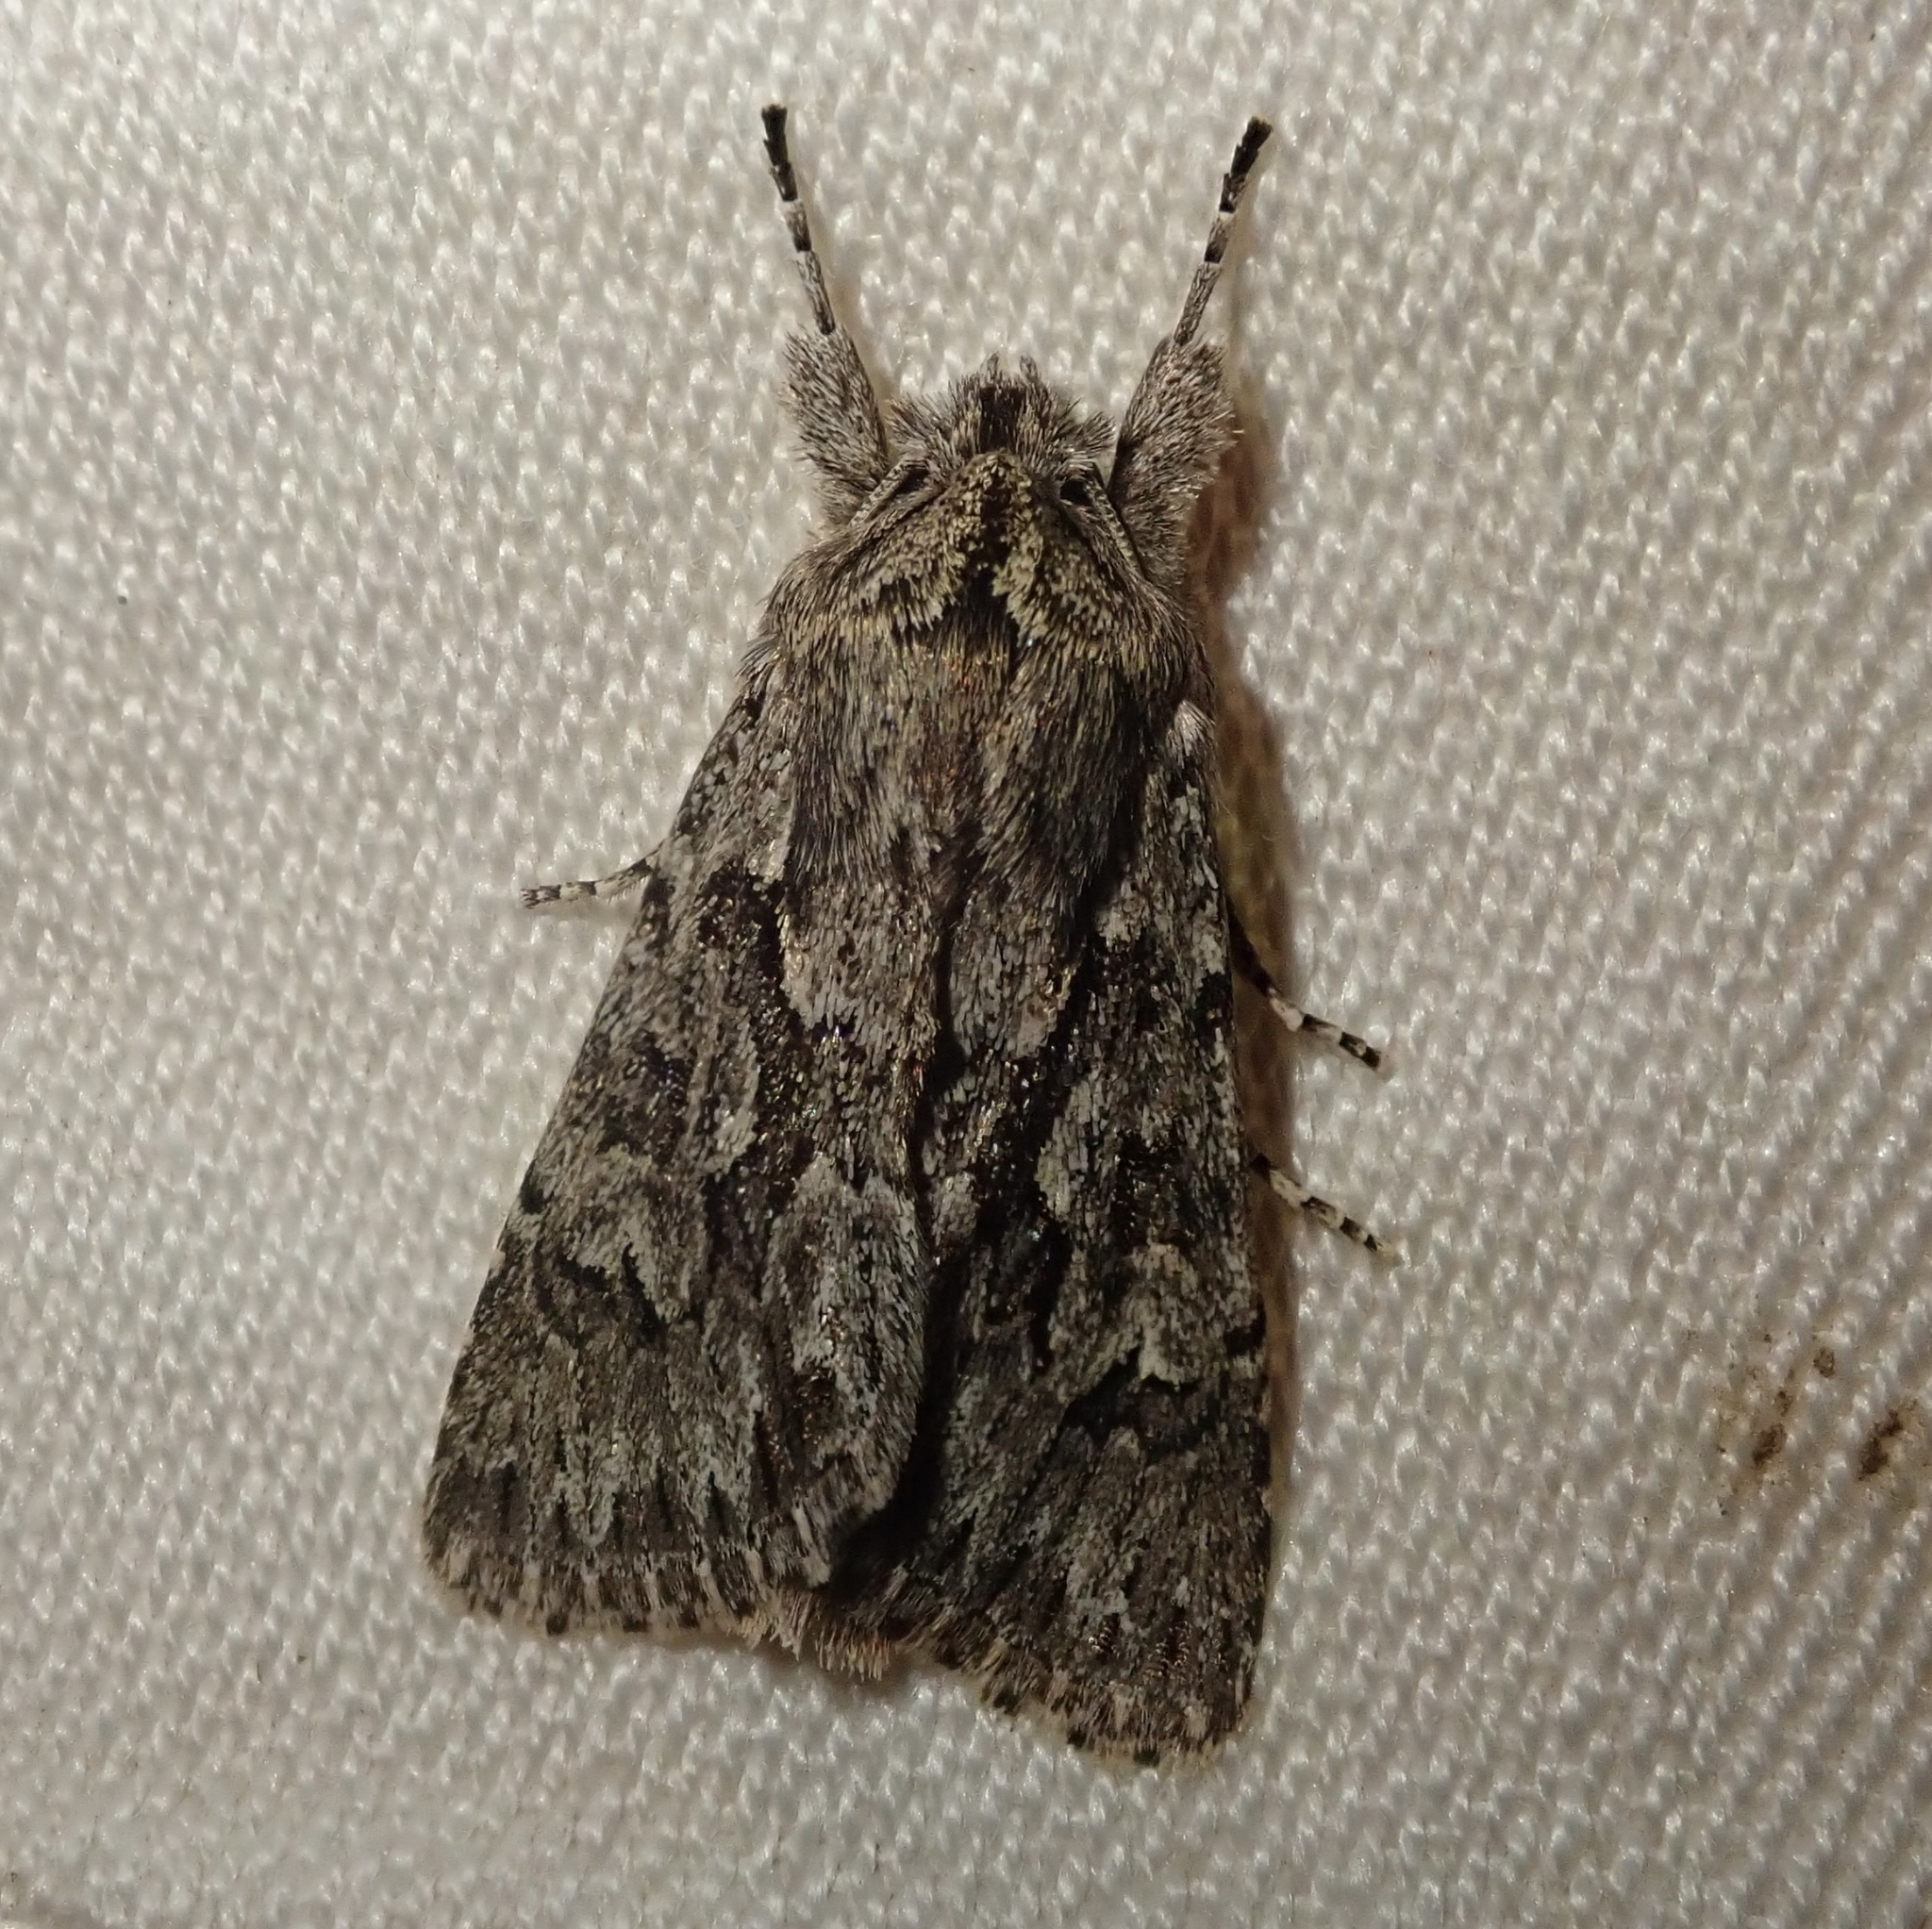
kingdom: Animalia
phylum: Arthropoda
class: Insecta
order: Lepidoptera
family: Noctuidae
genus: Xylocampa
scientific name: Xylocampa areola
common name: Early grey
